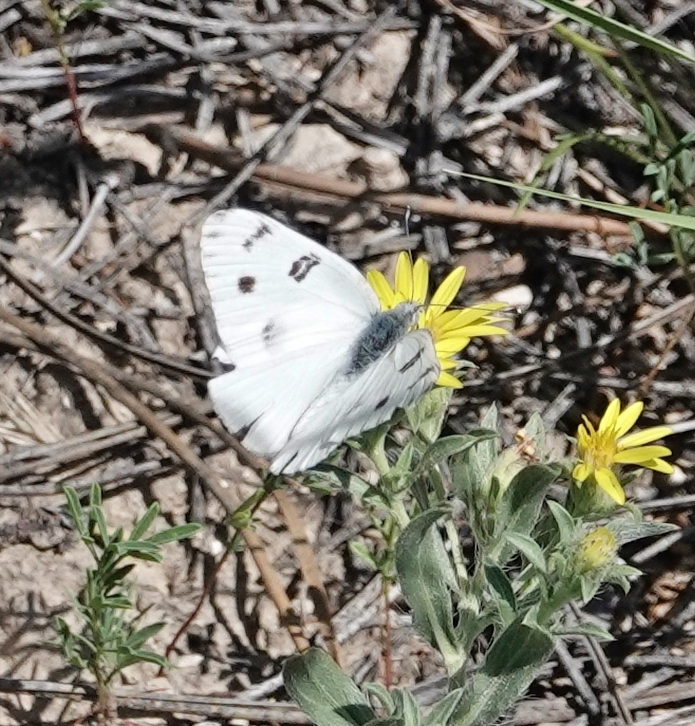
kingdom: Animalia
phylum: Arthropoda
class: Insecta
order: Lepidoptera
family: Pieridae
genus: Pontia
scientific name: Pontia protodice
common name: Checkered white
